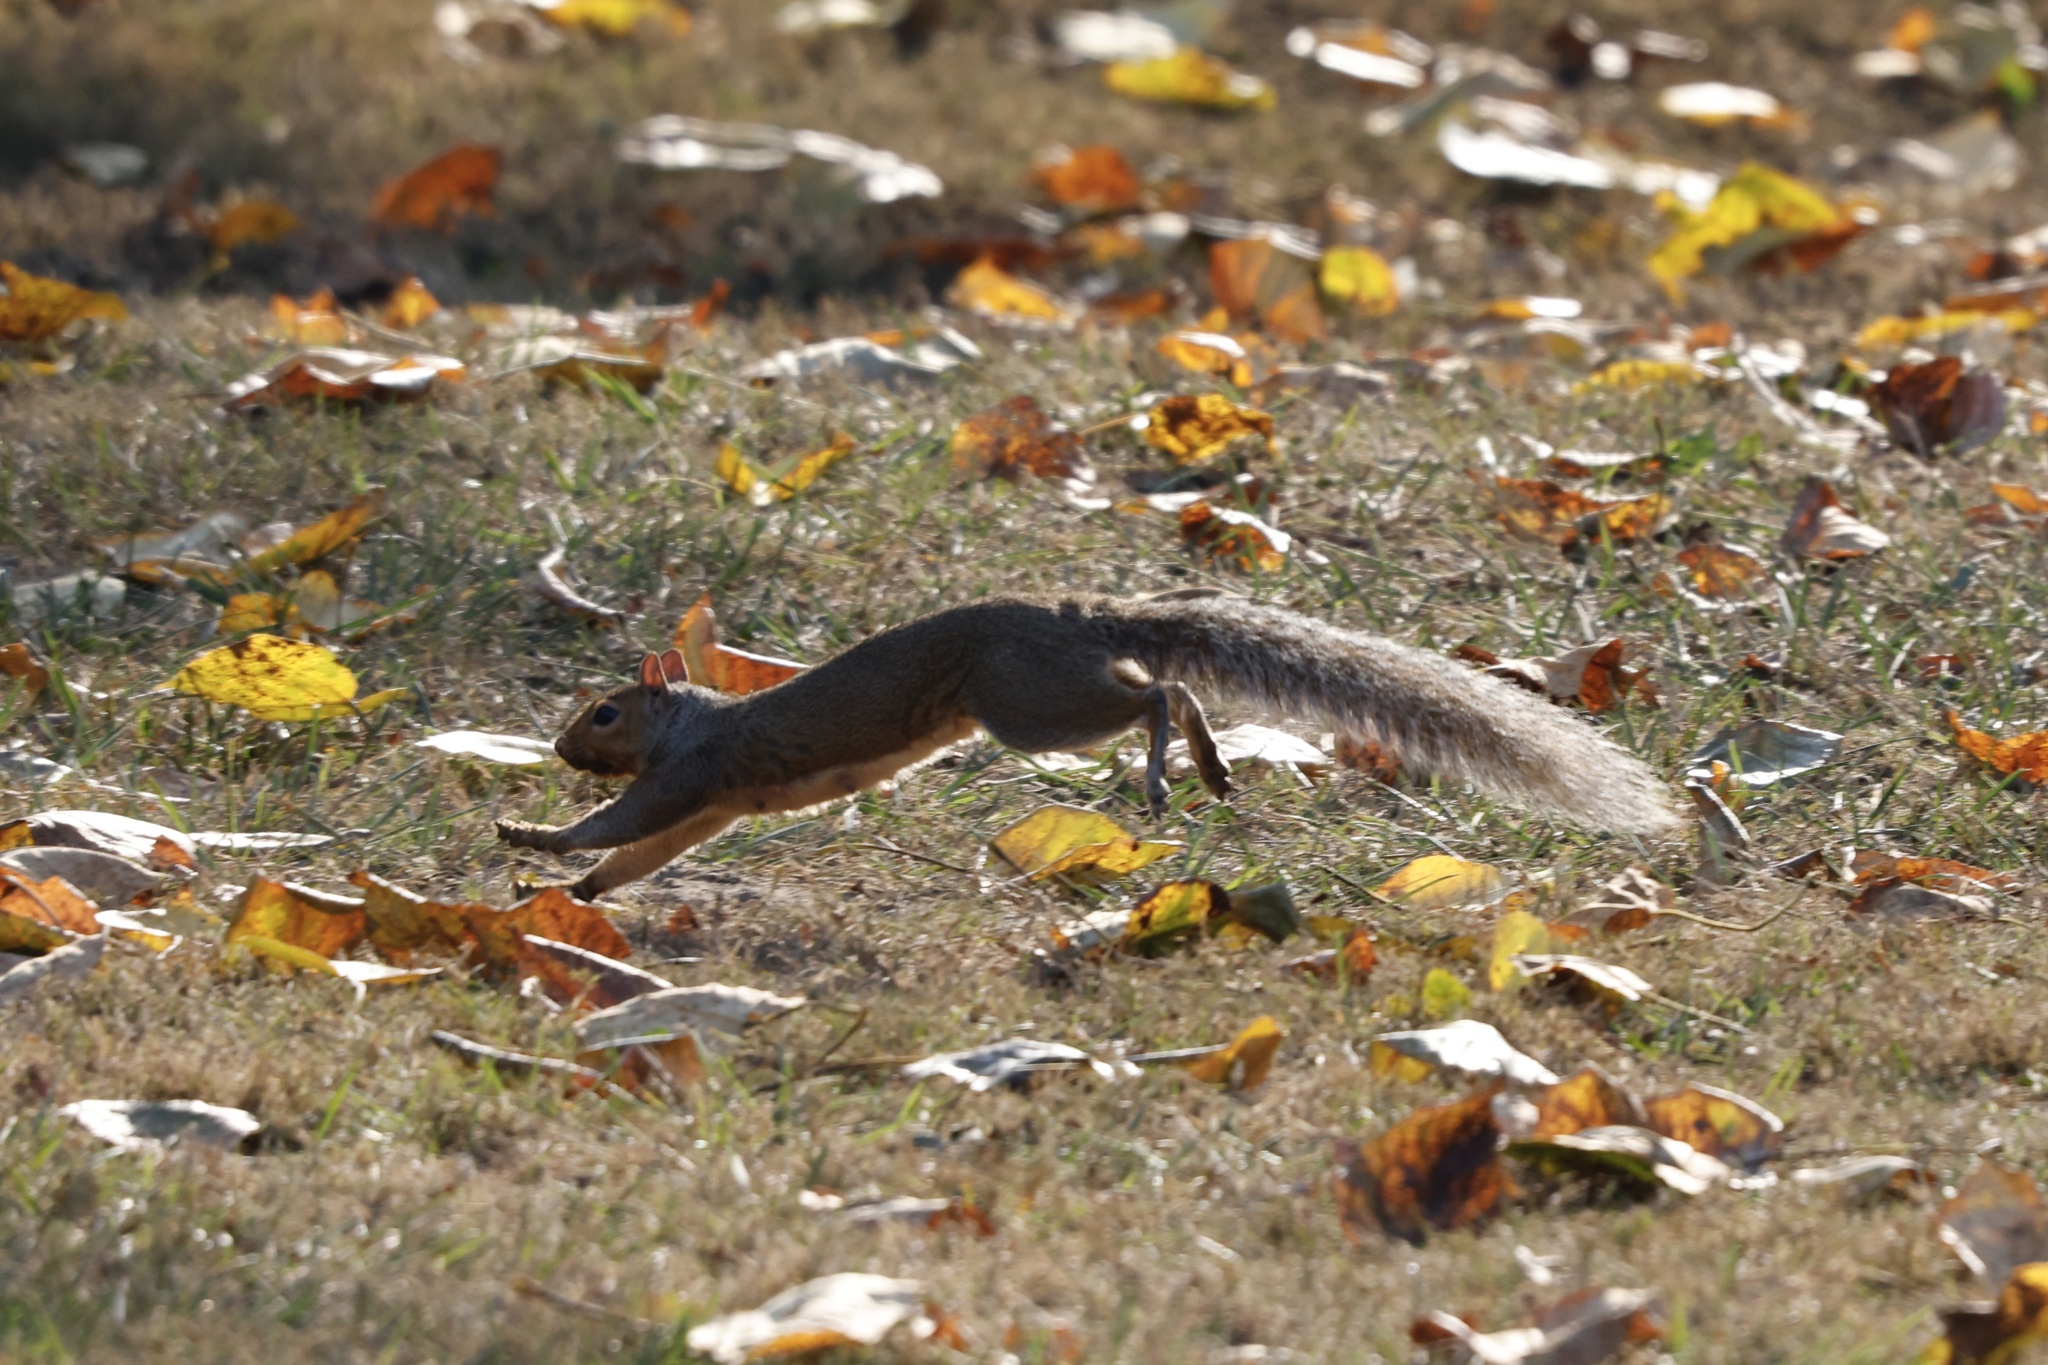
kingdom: Animalia
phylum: Chordata
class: Mammalia
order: Rodentia
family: Sciuridae
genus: Sciurus
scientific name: Sciurus carolinensis
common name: Eastern gray squirrel
